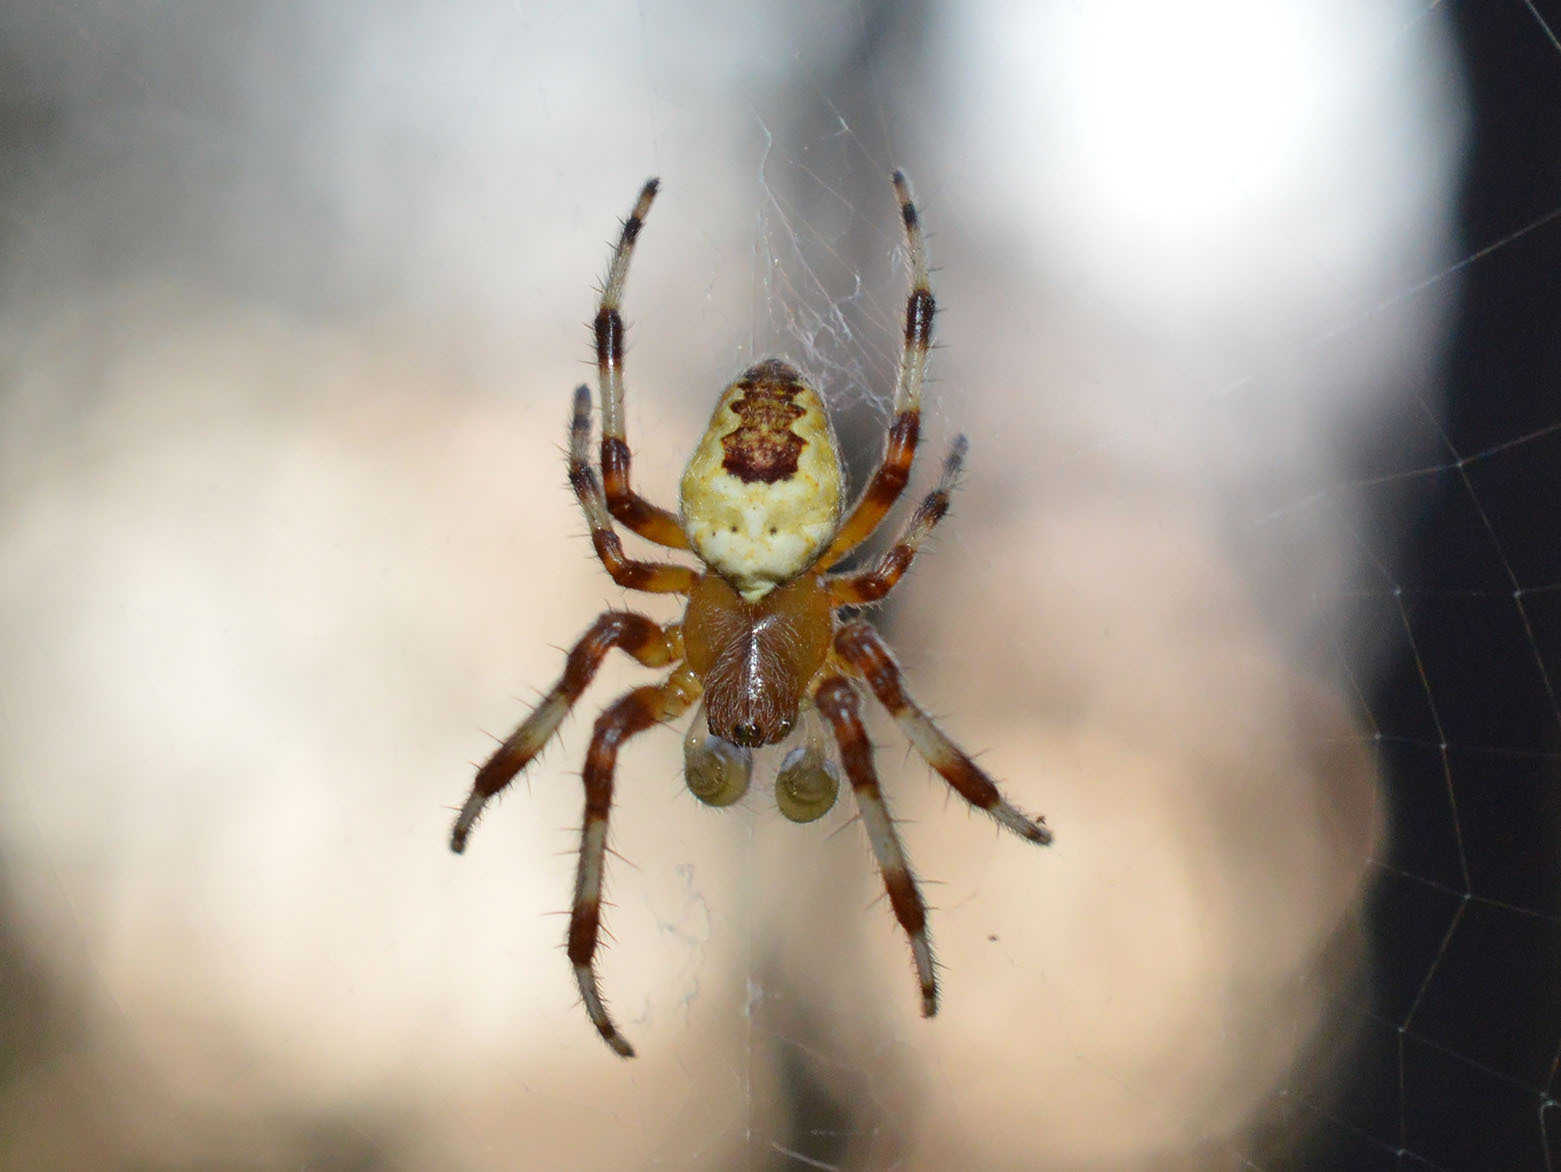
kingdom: Animalia
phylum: Arthropoda
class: Arachnida
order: Araneae
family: Araneidae
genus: Araneus
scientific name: Araneus marmoreus
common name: Marbled orbweaver
